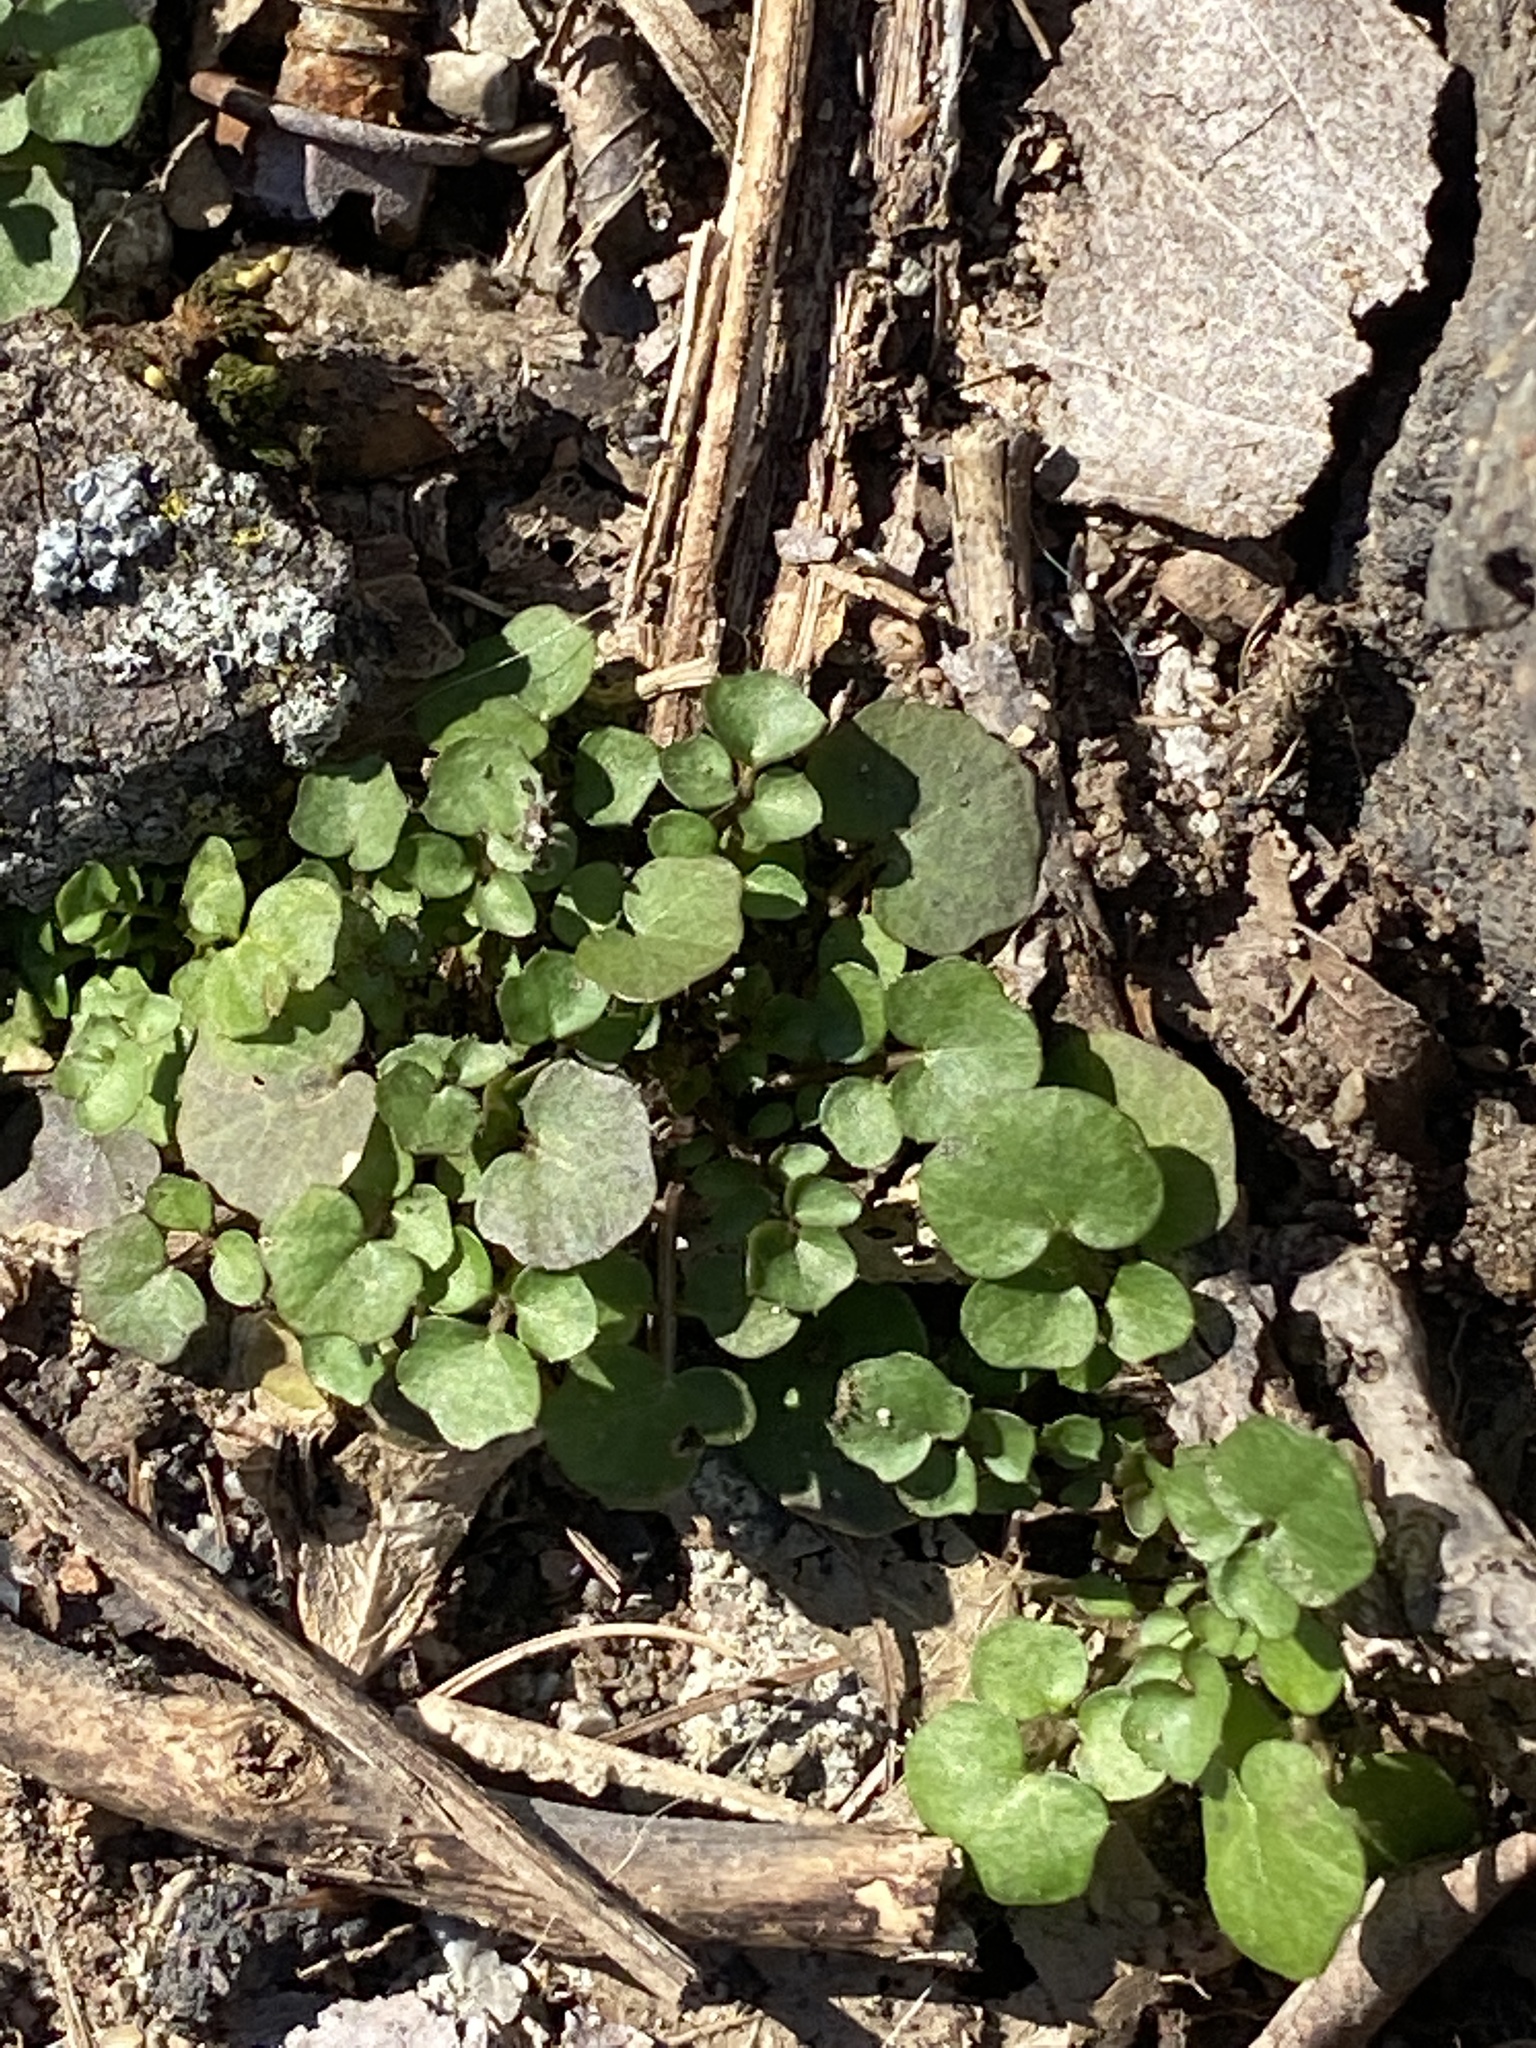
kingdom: Plantae
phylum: Tracheophyta
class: Magnoliopsida
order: Brassicales
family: Brassicaceae
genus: Cardamine
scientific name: Cardamine hirsuta
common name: Hairy bittercress
